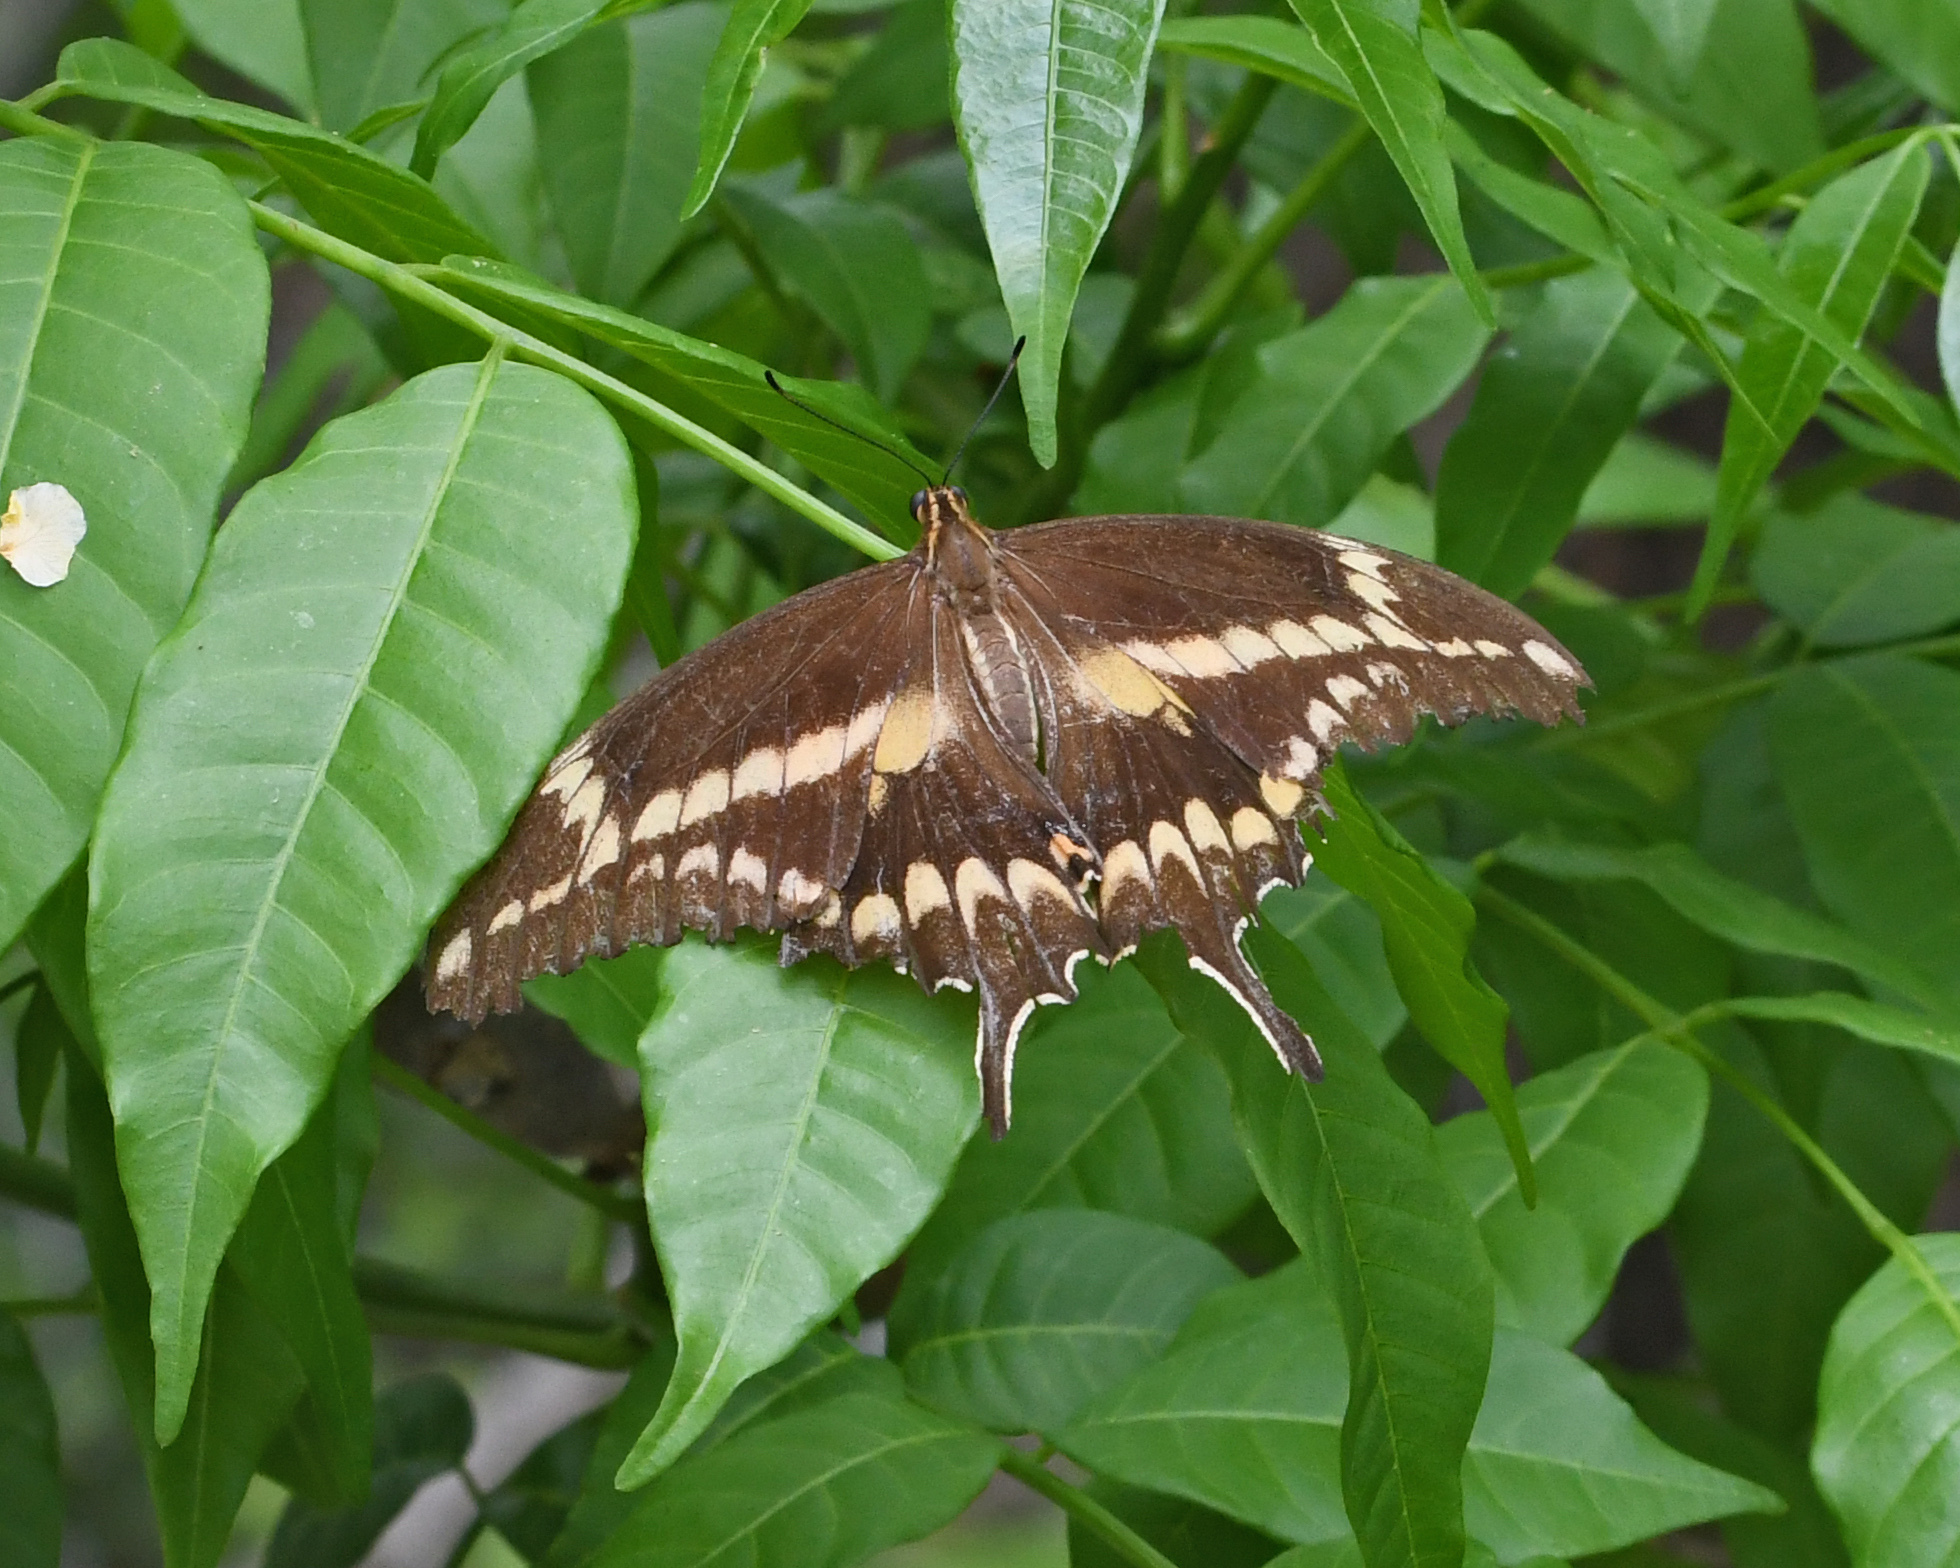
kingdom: Animalia
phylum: Arthropoda
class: Insecta
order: Lepidoptera
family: Papilionidae
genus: Papilio
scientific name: Papilio aristodemus
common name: Schaus' swallowtail
